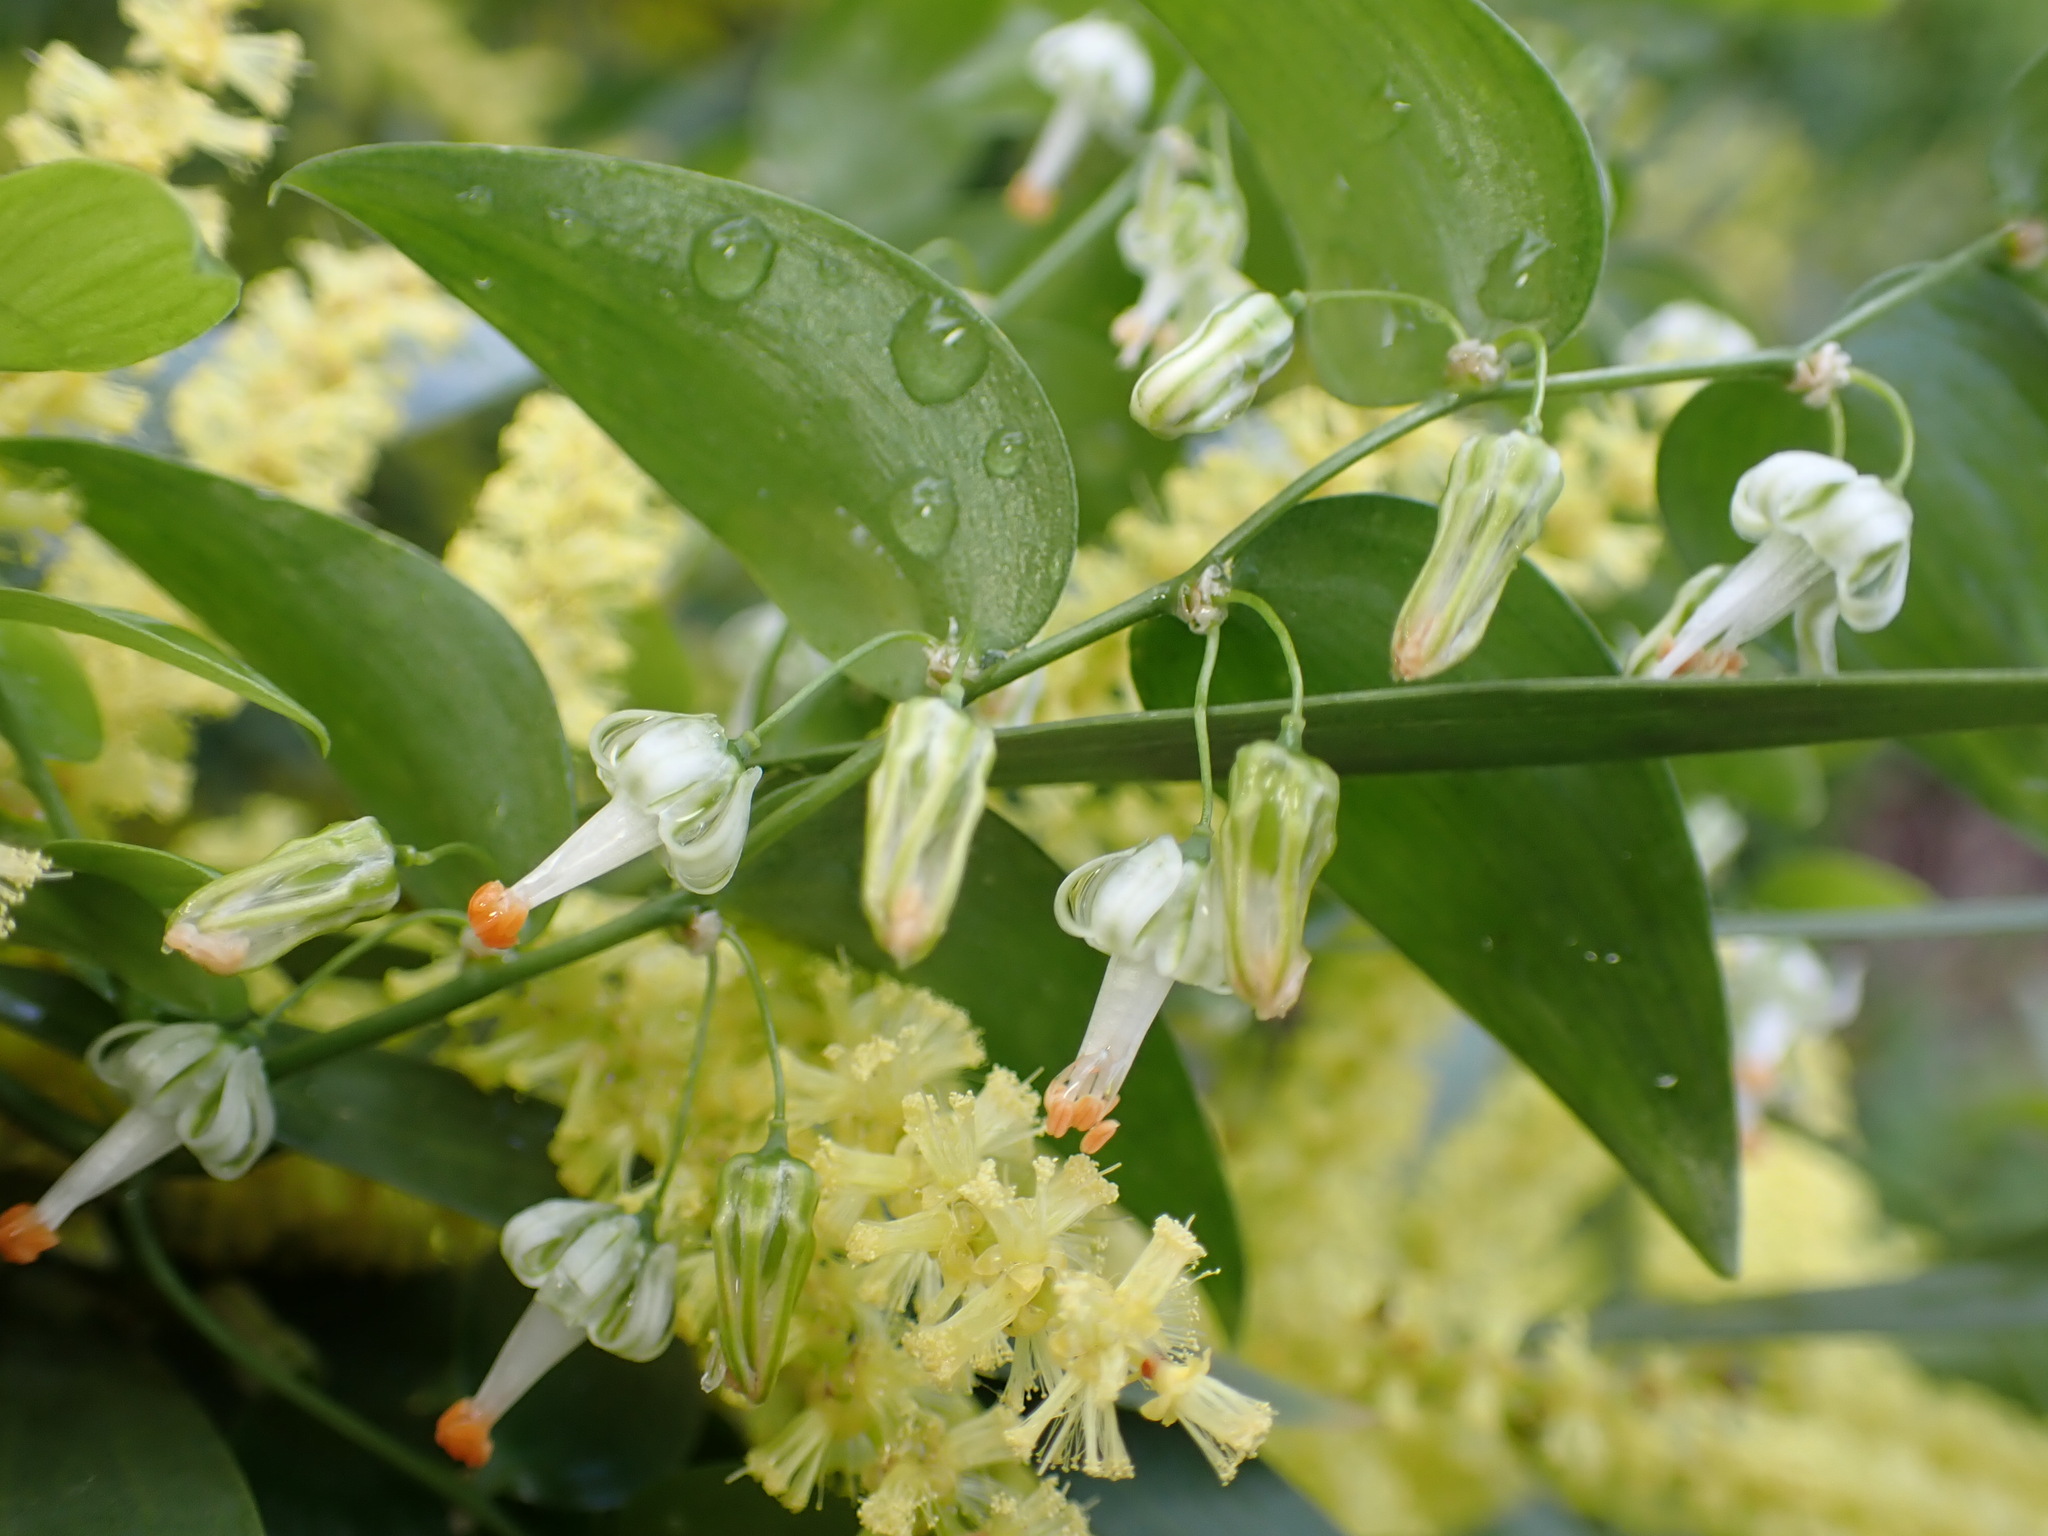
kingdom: Plantae
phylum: Tracheophyta
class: Liliopsida
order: Asparagales
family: Asparagaceae
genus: Asparagus
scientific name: Asparagus asparagoides
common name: African asparagus fern
